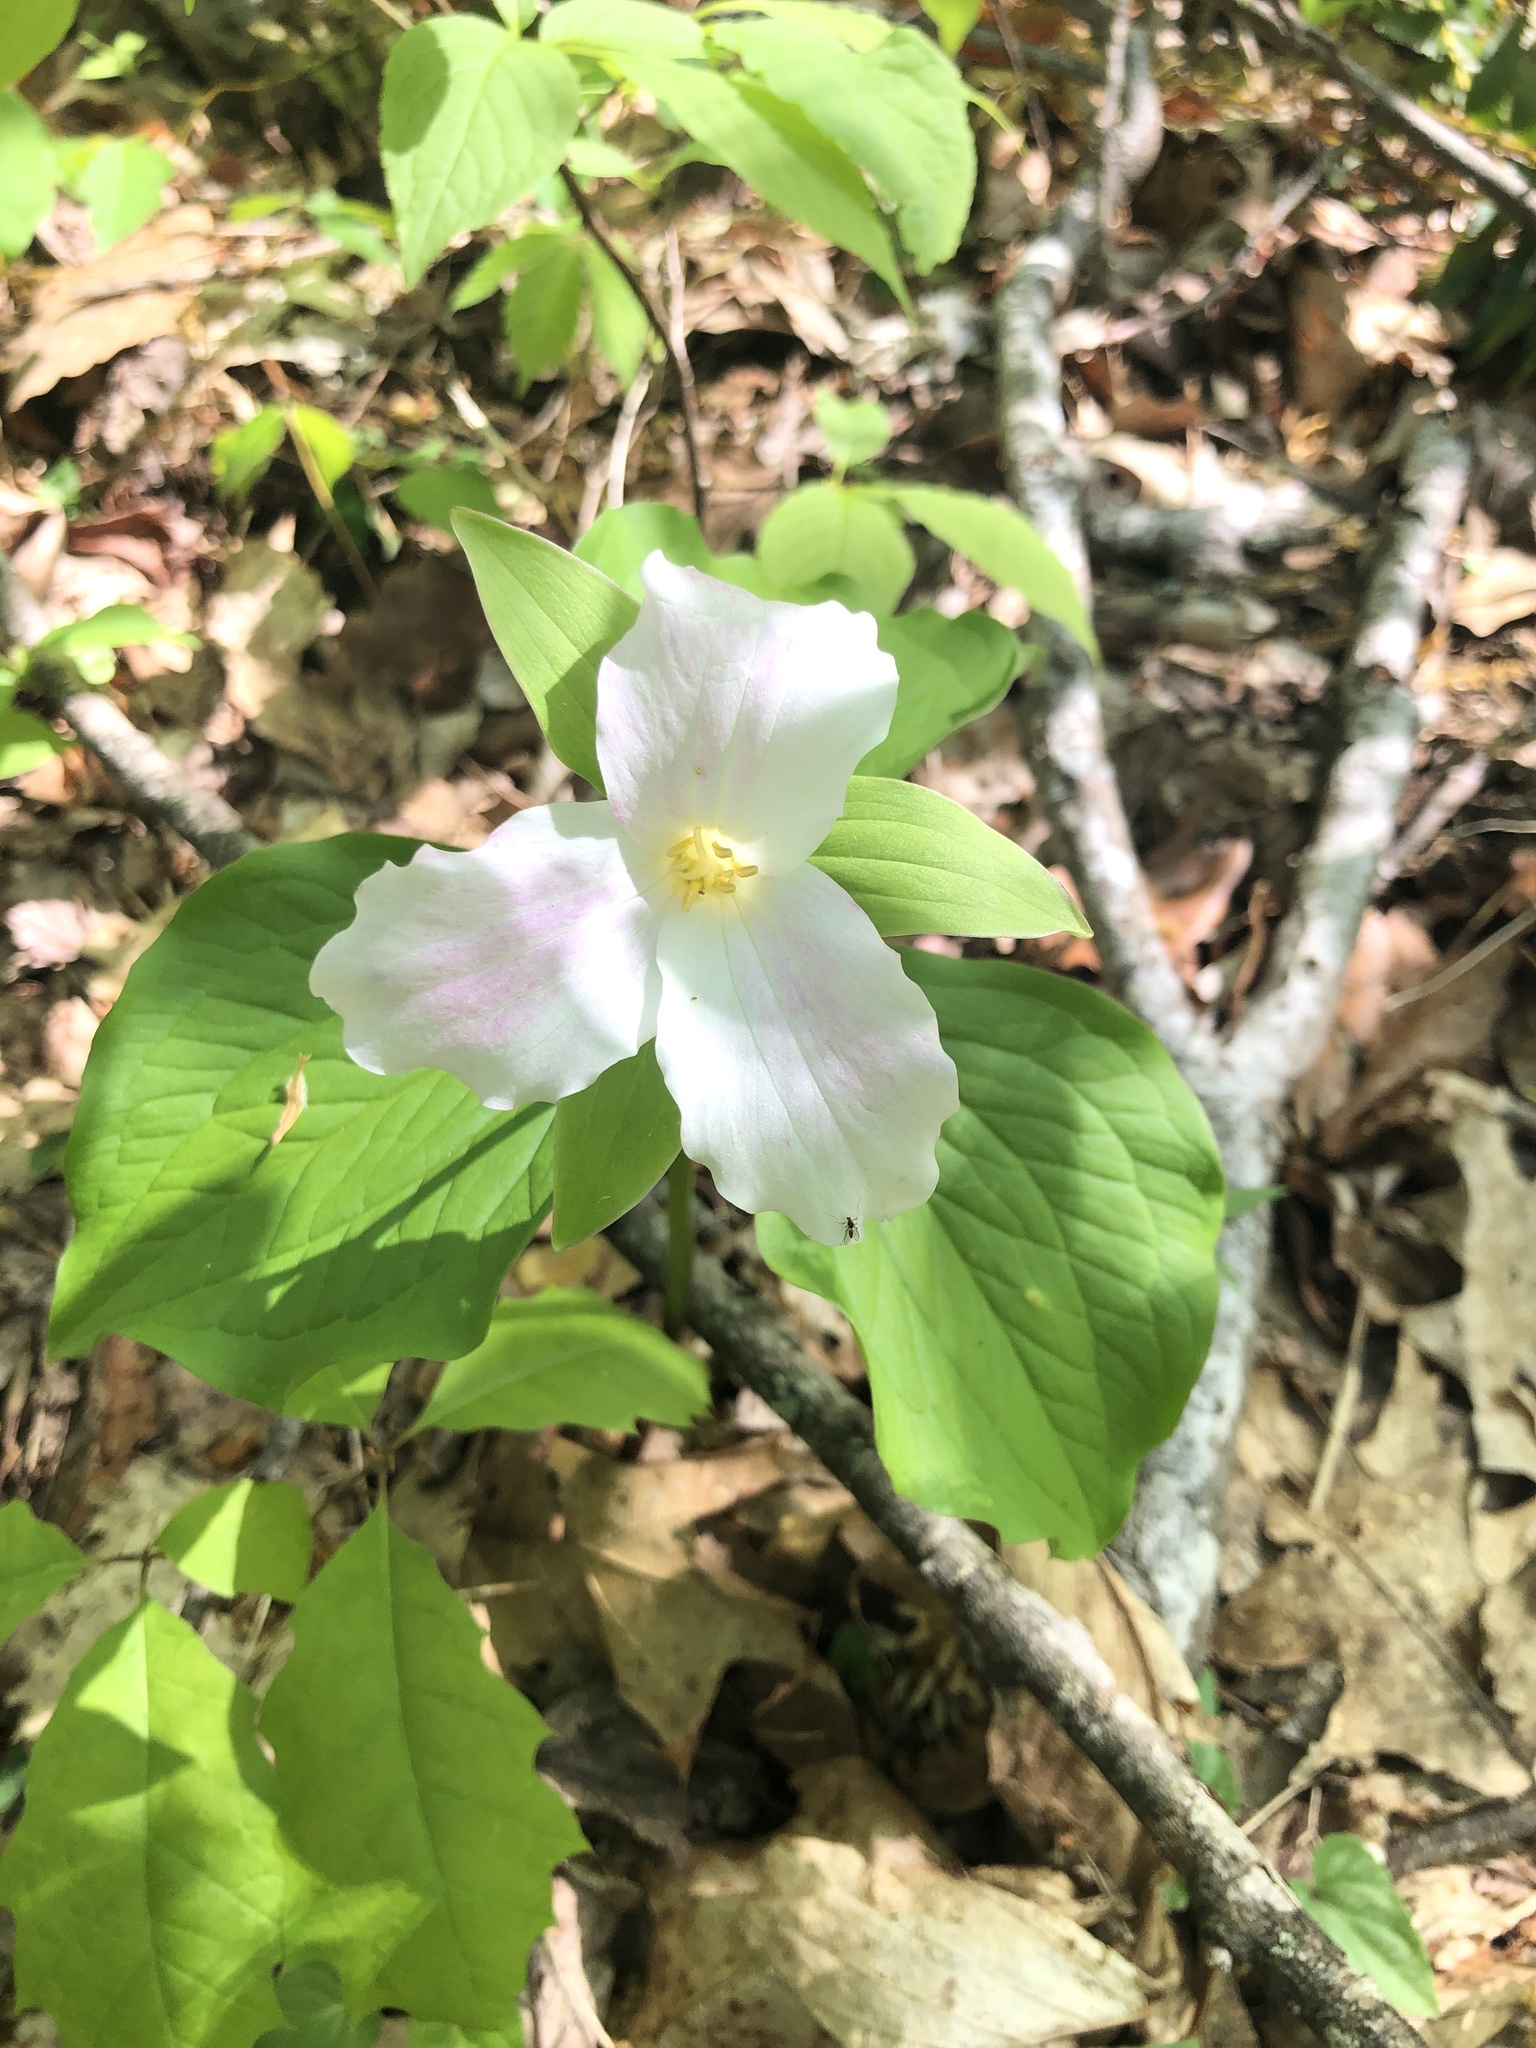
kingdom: Plantae
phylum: Tracheophyta
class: Liliopsida
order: Liliales
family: Melanthiaceae
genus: Trillium
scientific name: Trillium grandiflorum
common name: Great white trillium
